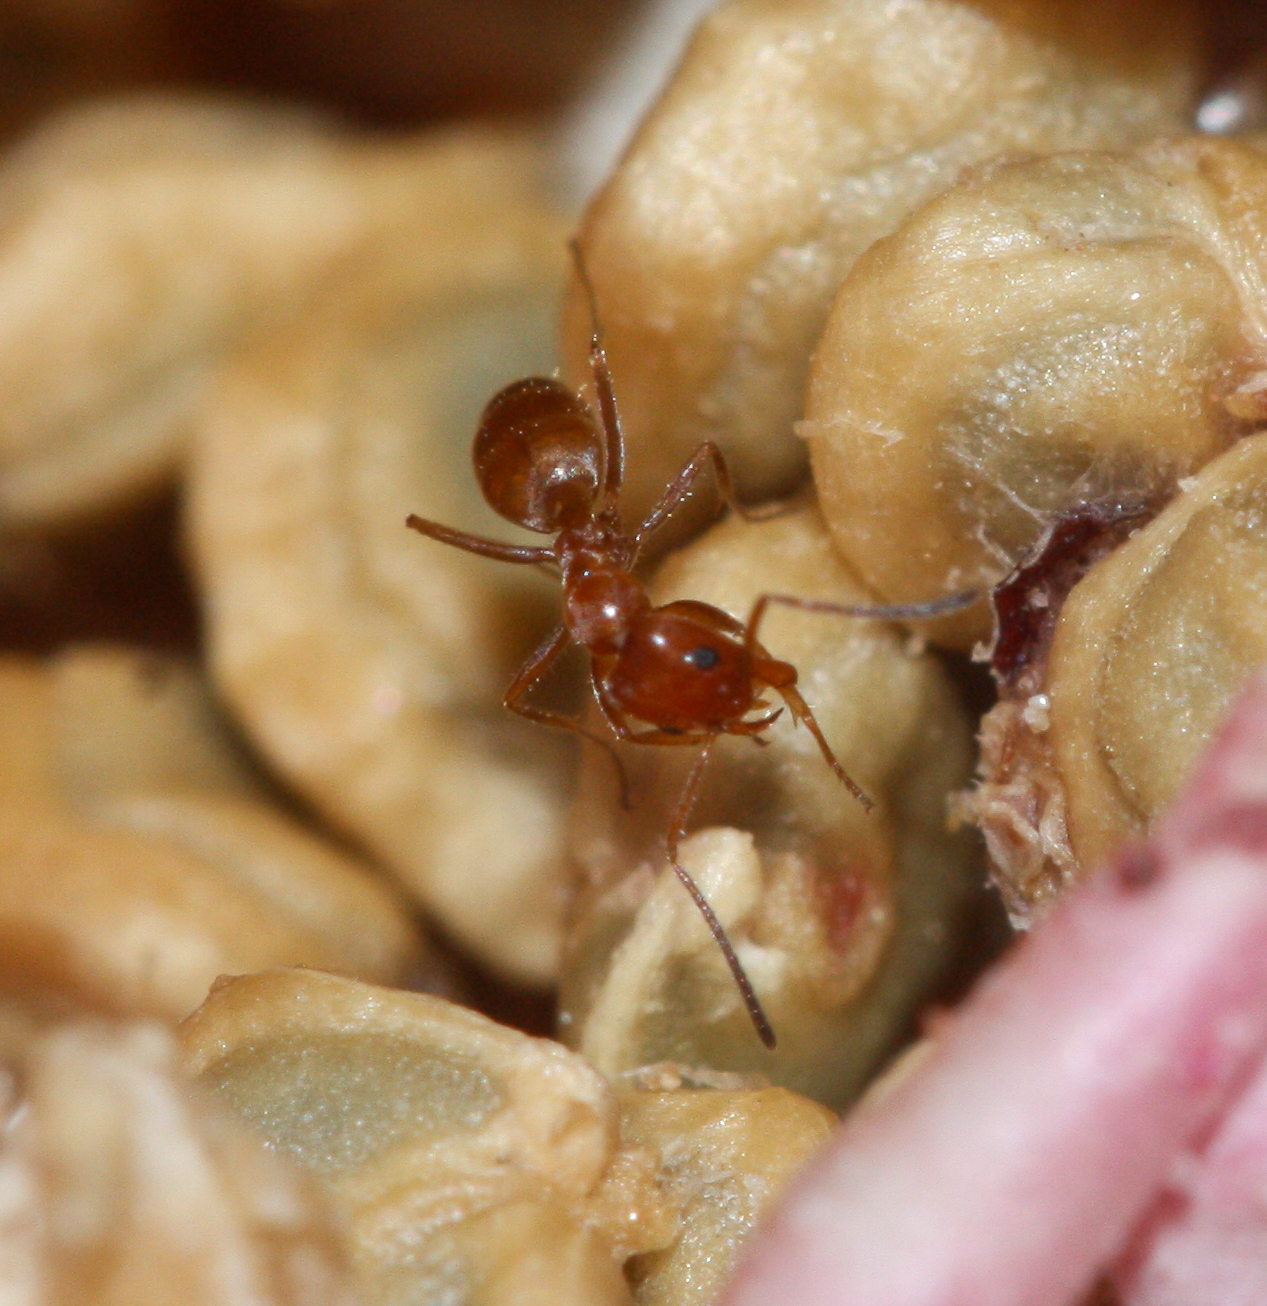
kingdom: Animalia
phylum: Arthropoda
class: Insecta
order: Hymenoptera
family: Formicidae
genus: Forelius
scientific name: Forelius mccooki
